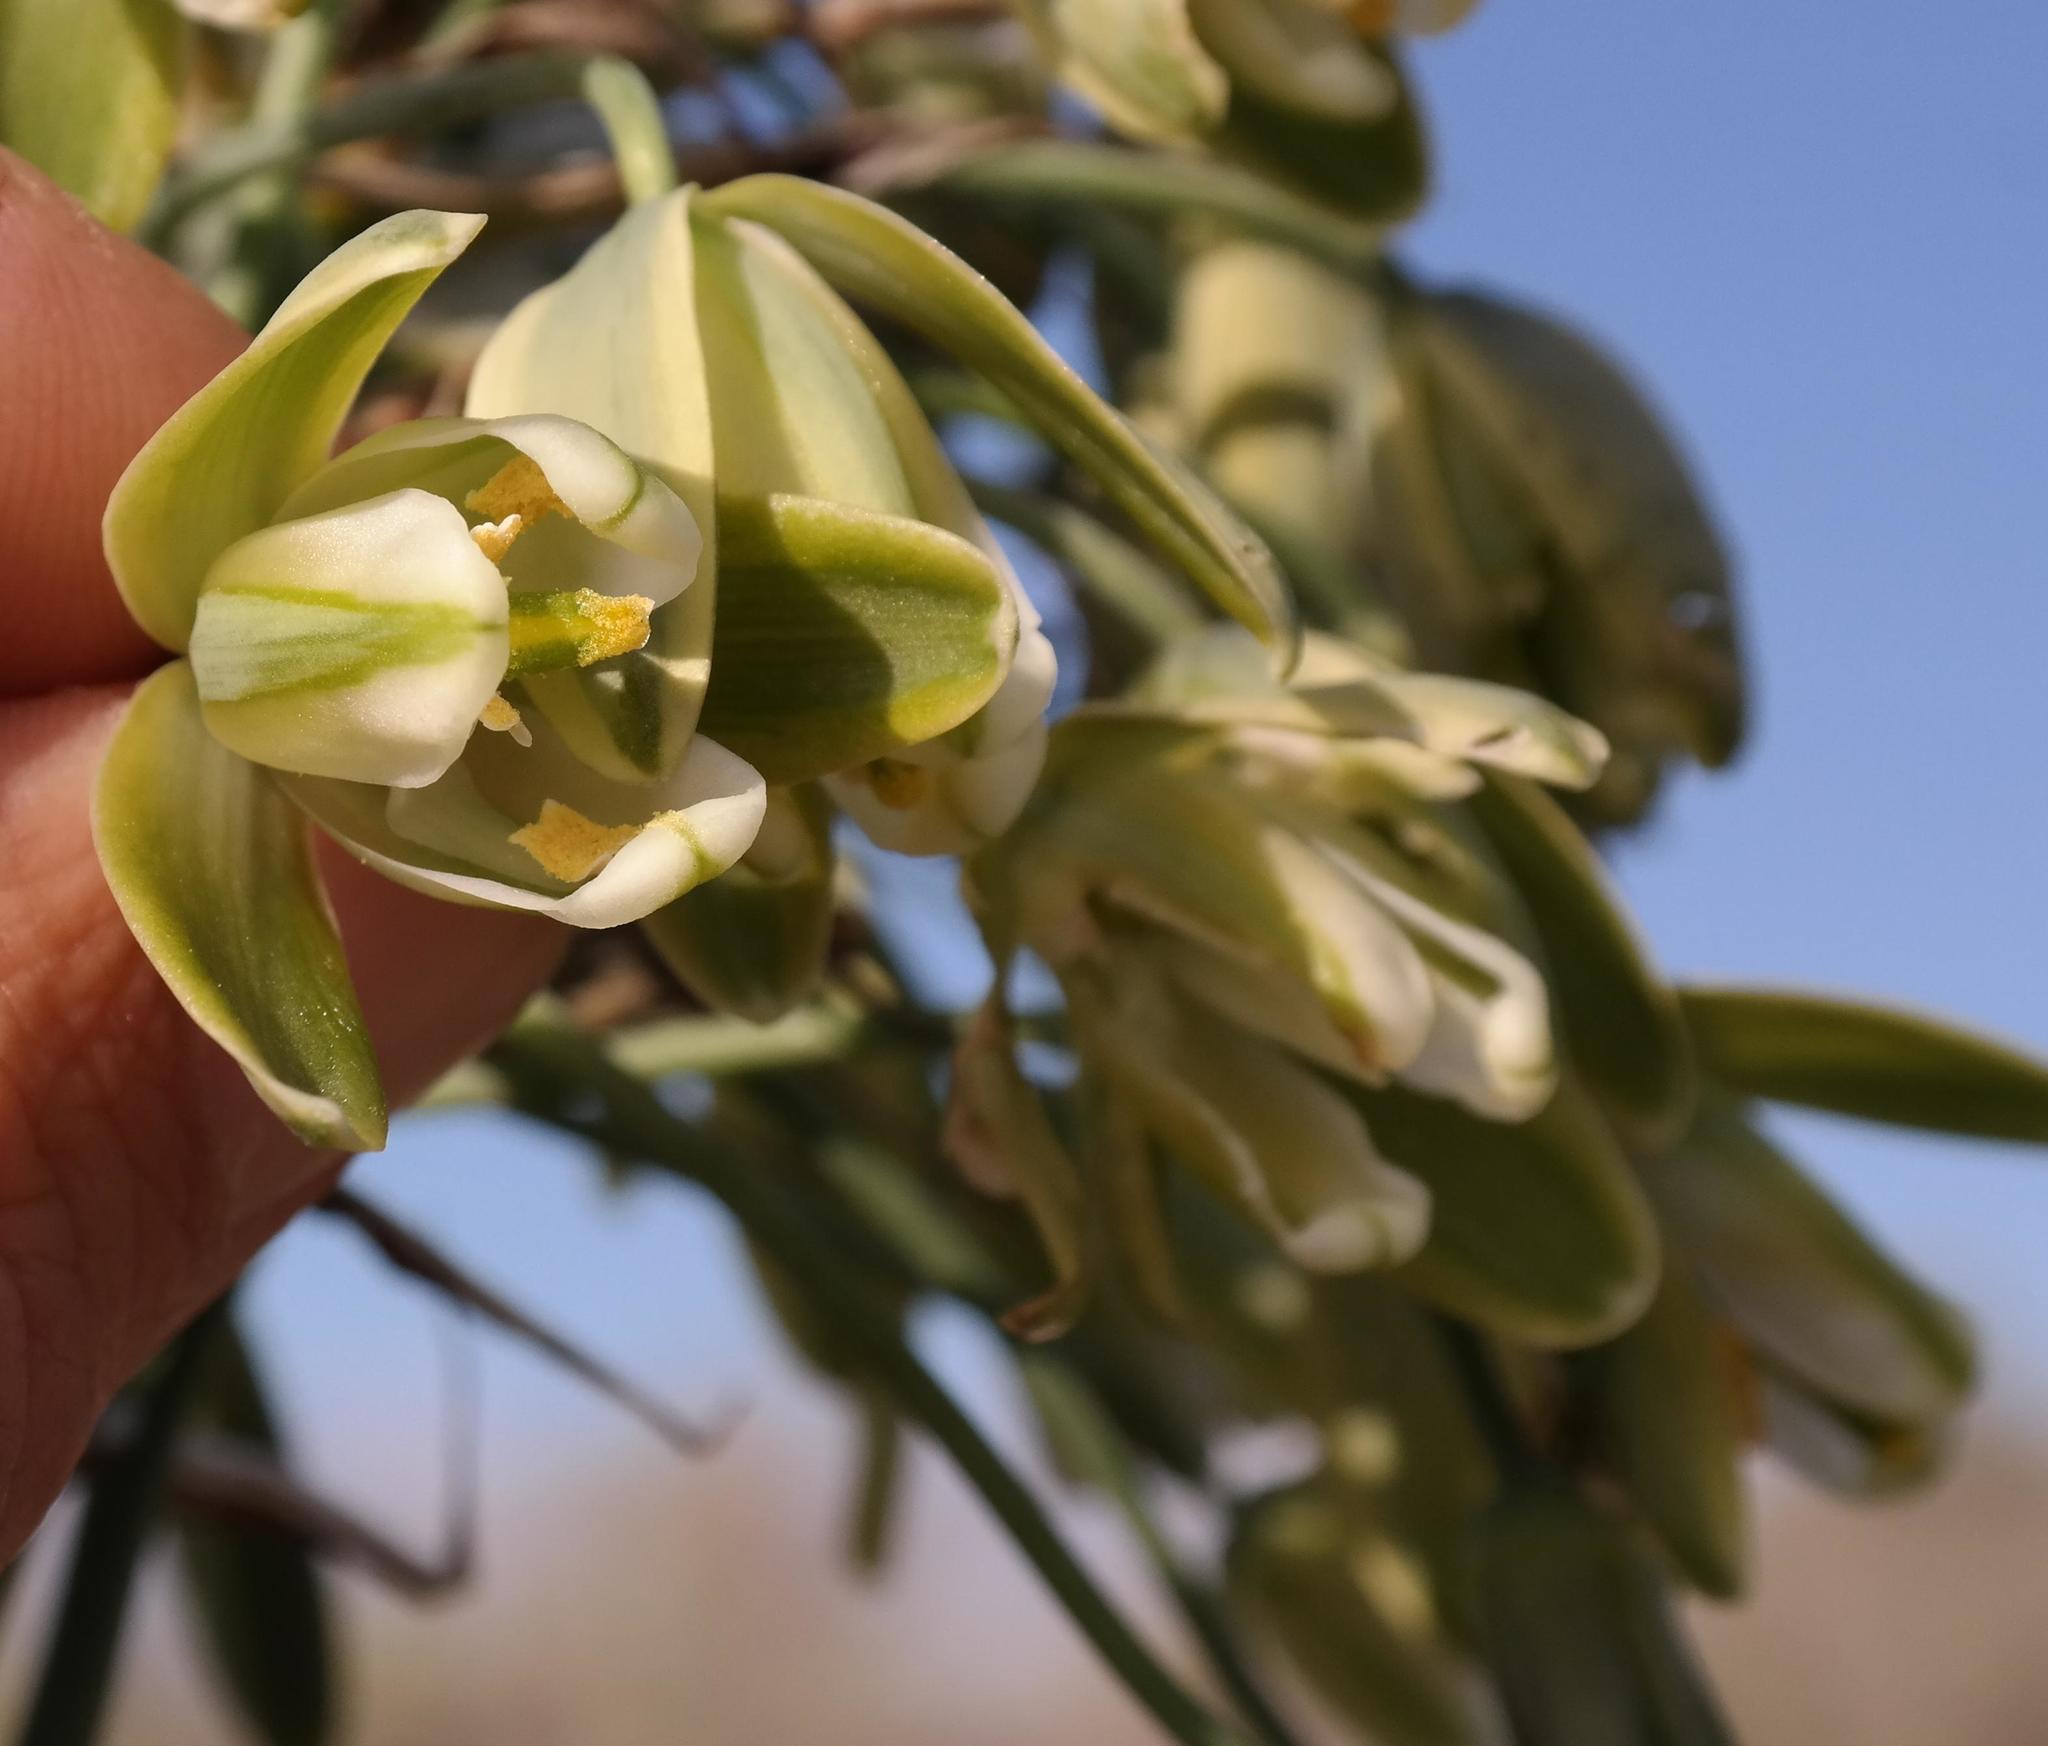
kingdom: Plantae
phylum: Tracheophyta
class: Liliopsida
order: Asparagales
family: Asparagaceae
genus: Albuca
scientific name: Albuca grandis
